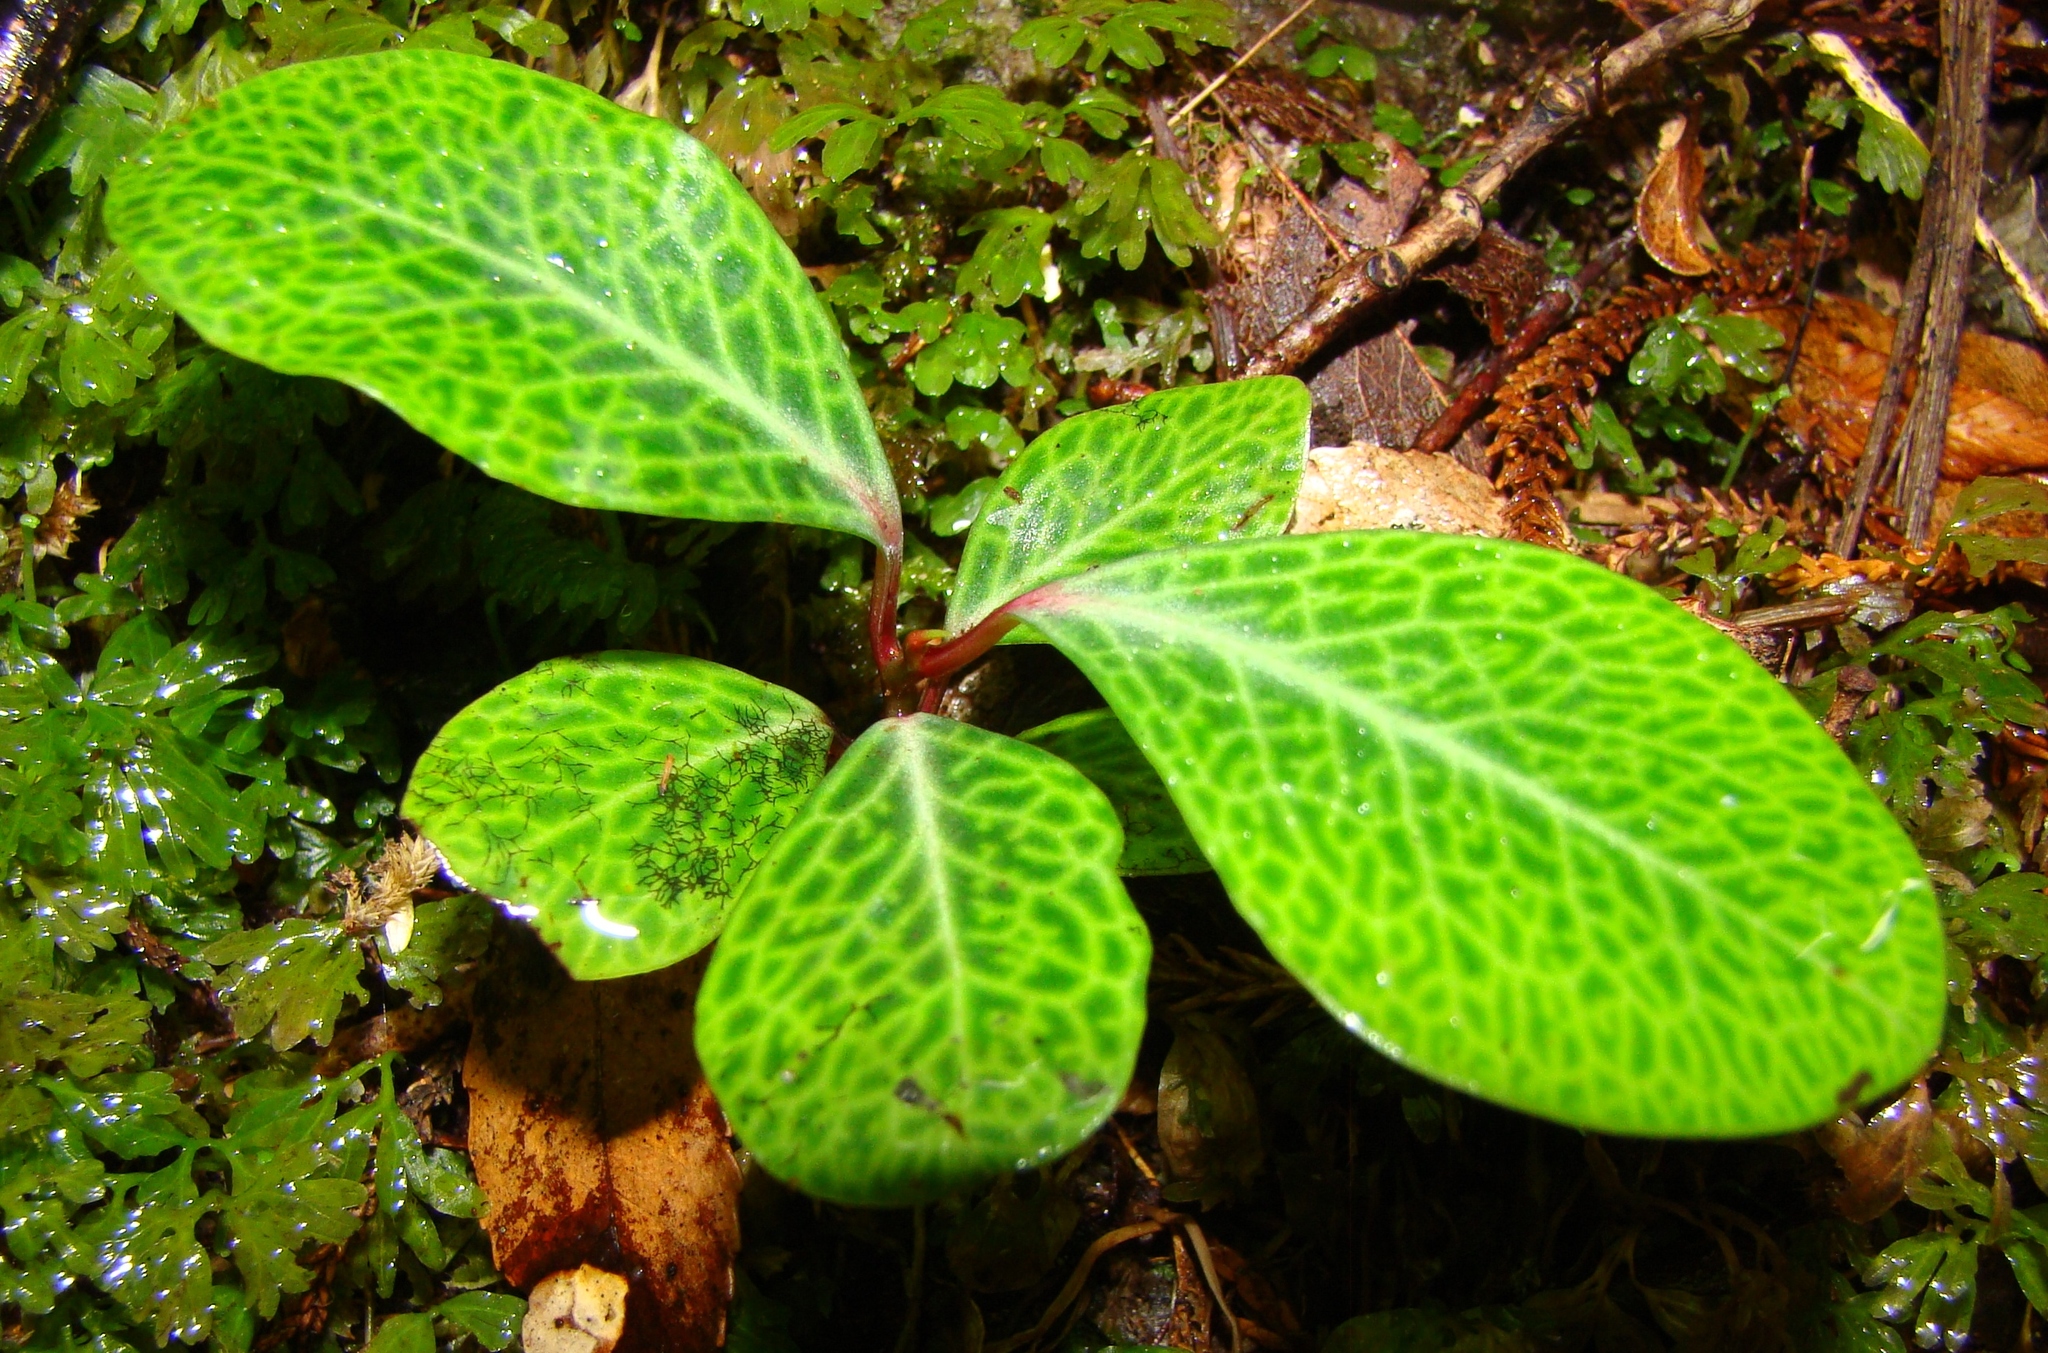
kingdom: Plantae
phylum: Tracheophyta
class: Magnoliopsida
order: Canellales
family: Winteraceae
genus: Pseudowintera
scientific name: Pseudowintera axillaris
